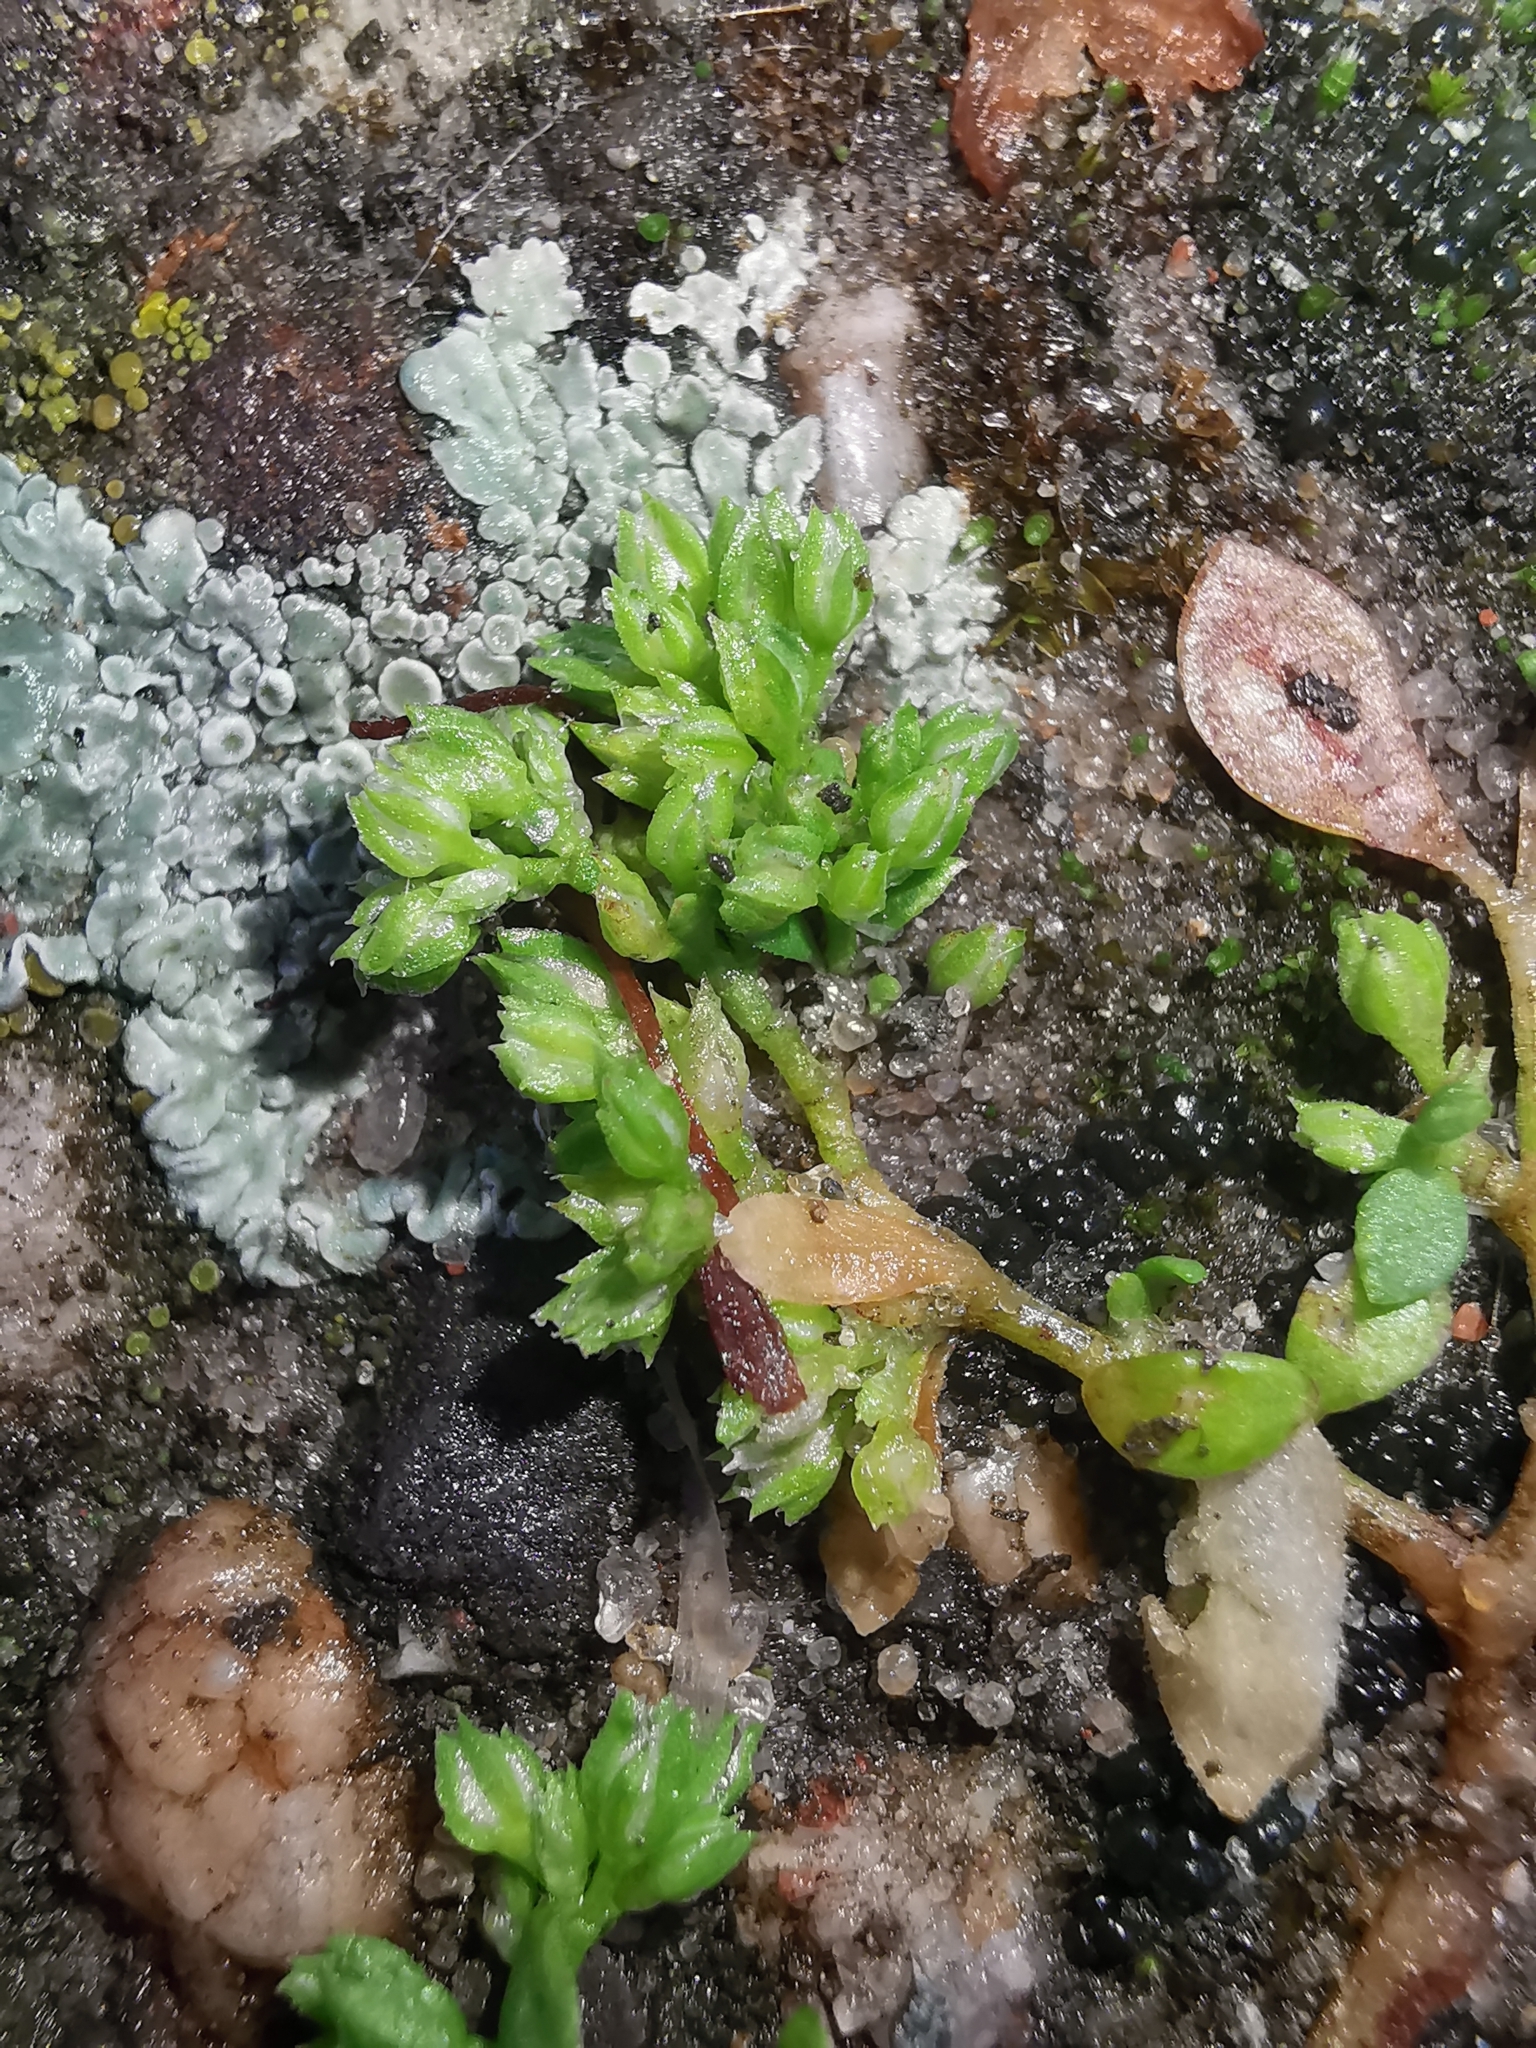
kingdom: Plantae
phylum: Tracheophyta
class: Magnoliopsida
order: Caryophyllales
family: Caryophyllaceae
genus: Polycarpon
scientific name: Polycarpon tetraphyllum
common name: Four-leaved all-seed
